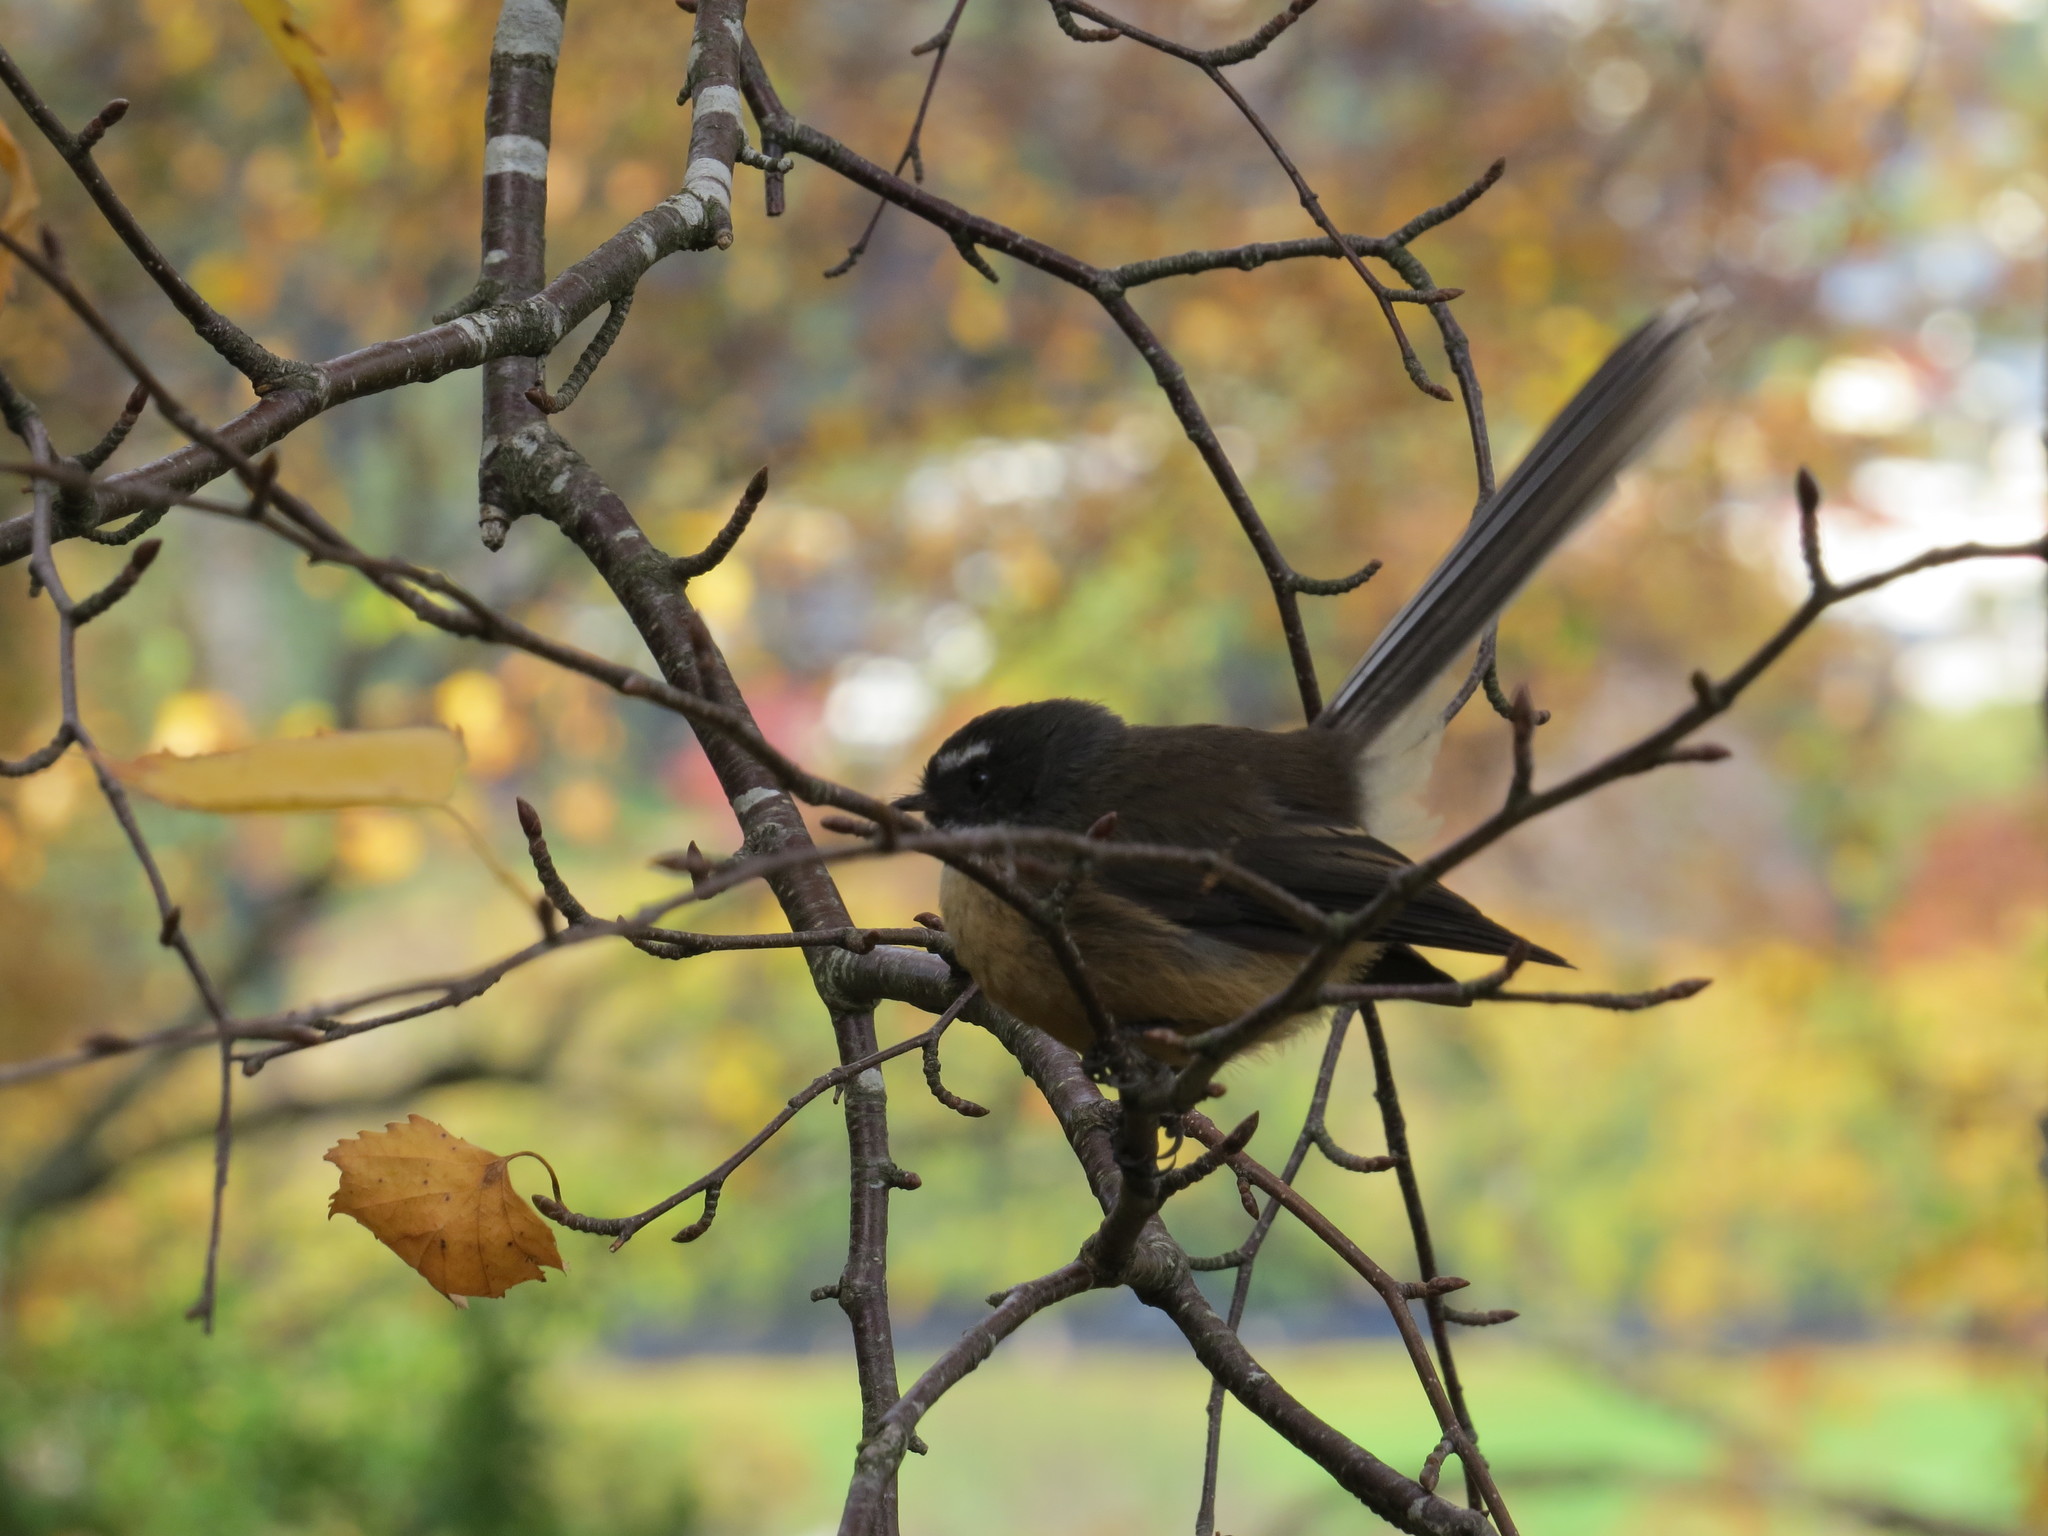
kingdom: Animalia
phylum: Chordata
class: Aves
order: Passeriformes
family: Rhipiduridae
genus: Rhipidura
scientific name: Rhipidura fuliginosa
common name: New zealand fantail
